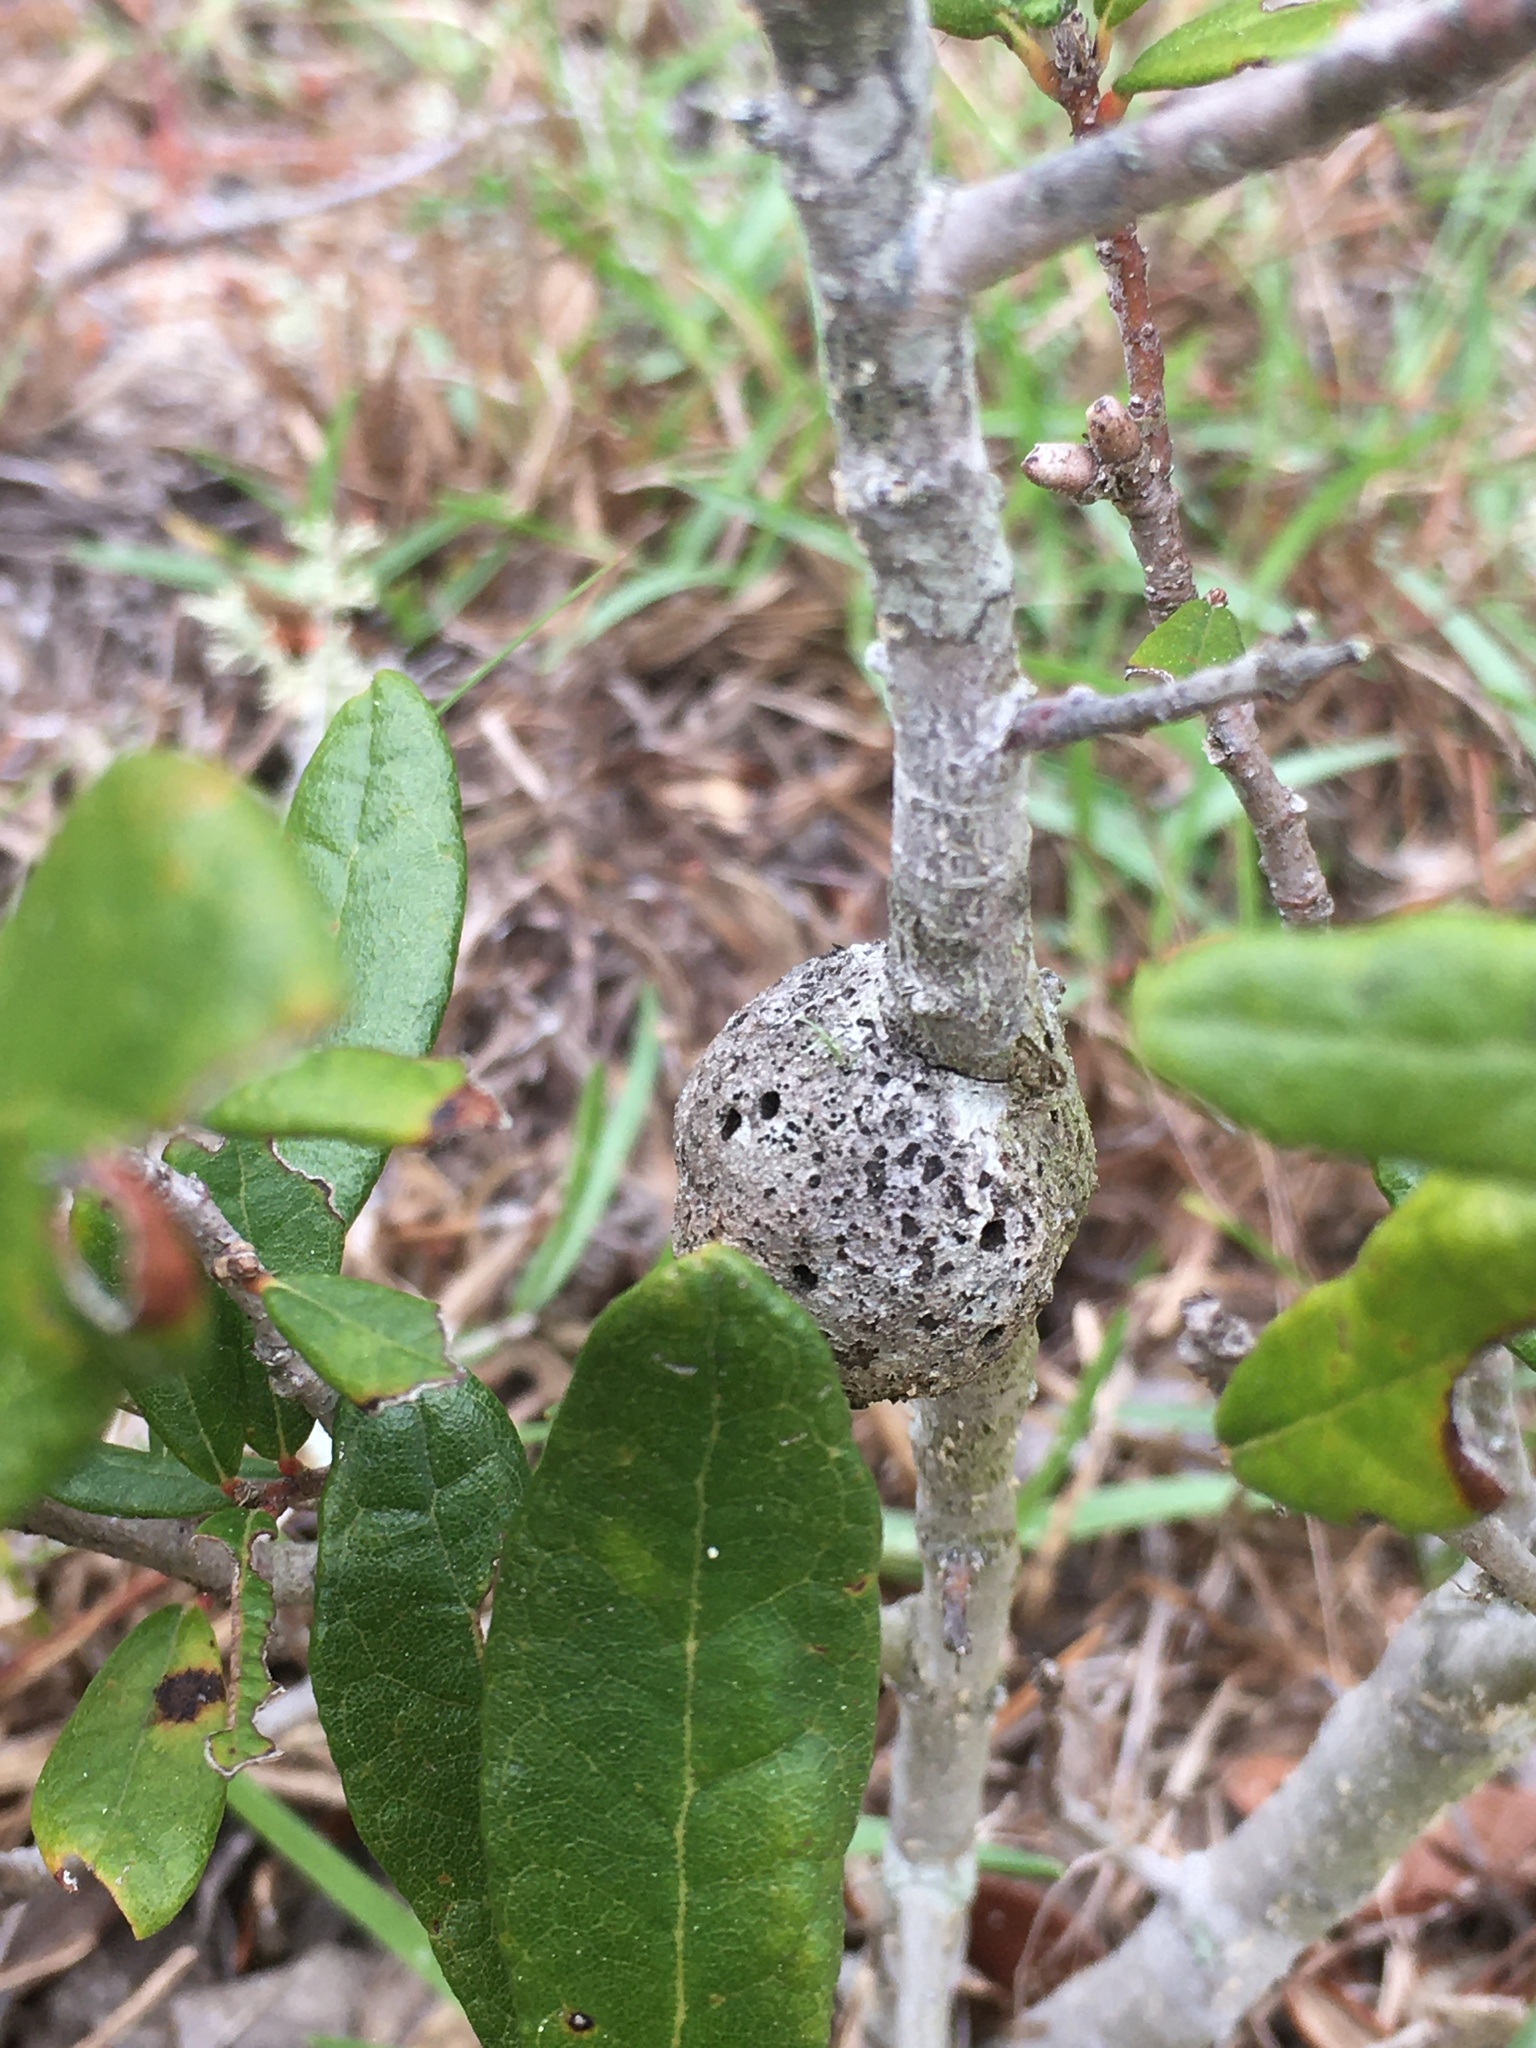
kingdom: Animalia
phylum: Arthropoda
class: Insecta
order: Hymenoptera
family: Cynipidae
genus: Callirhytis
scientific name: Callirhytis
